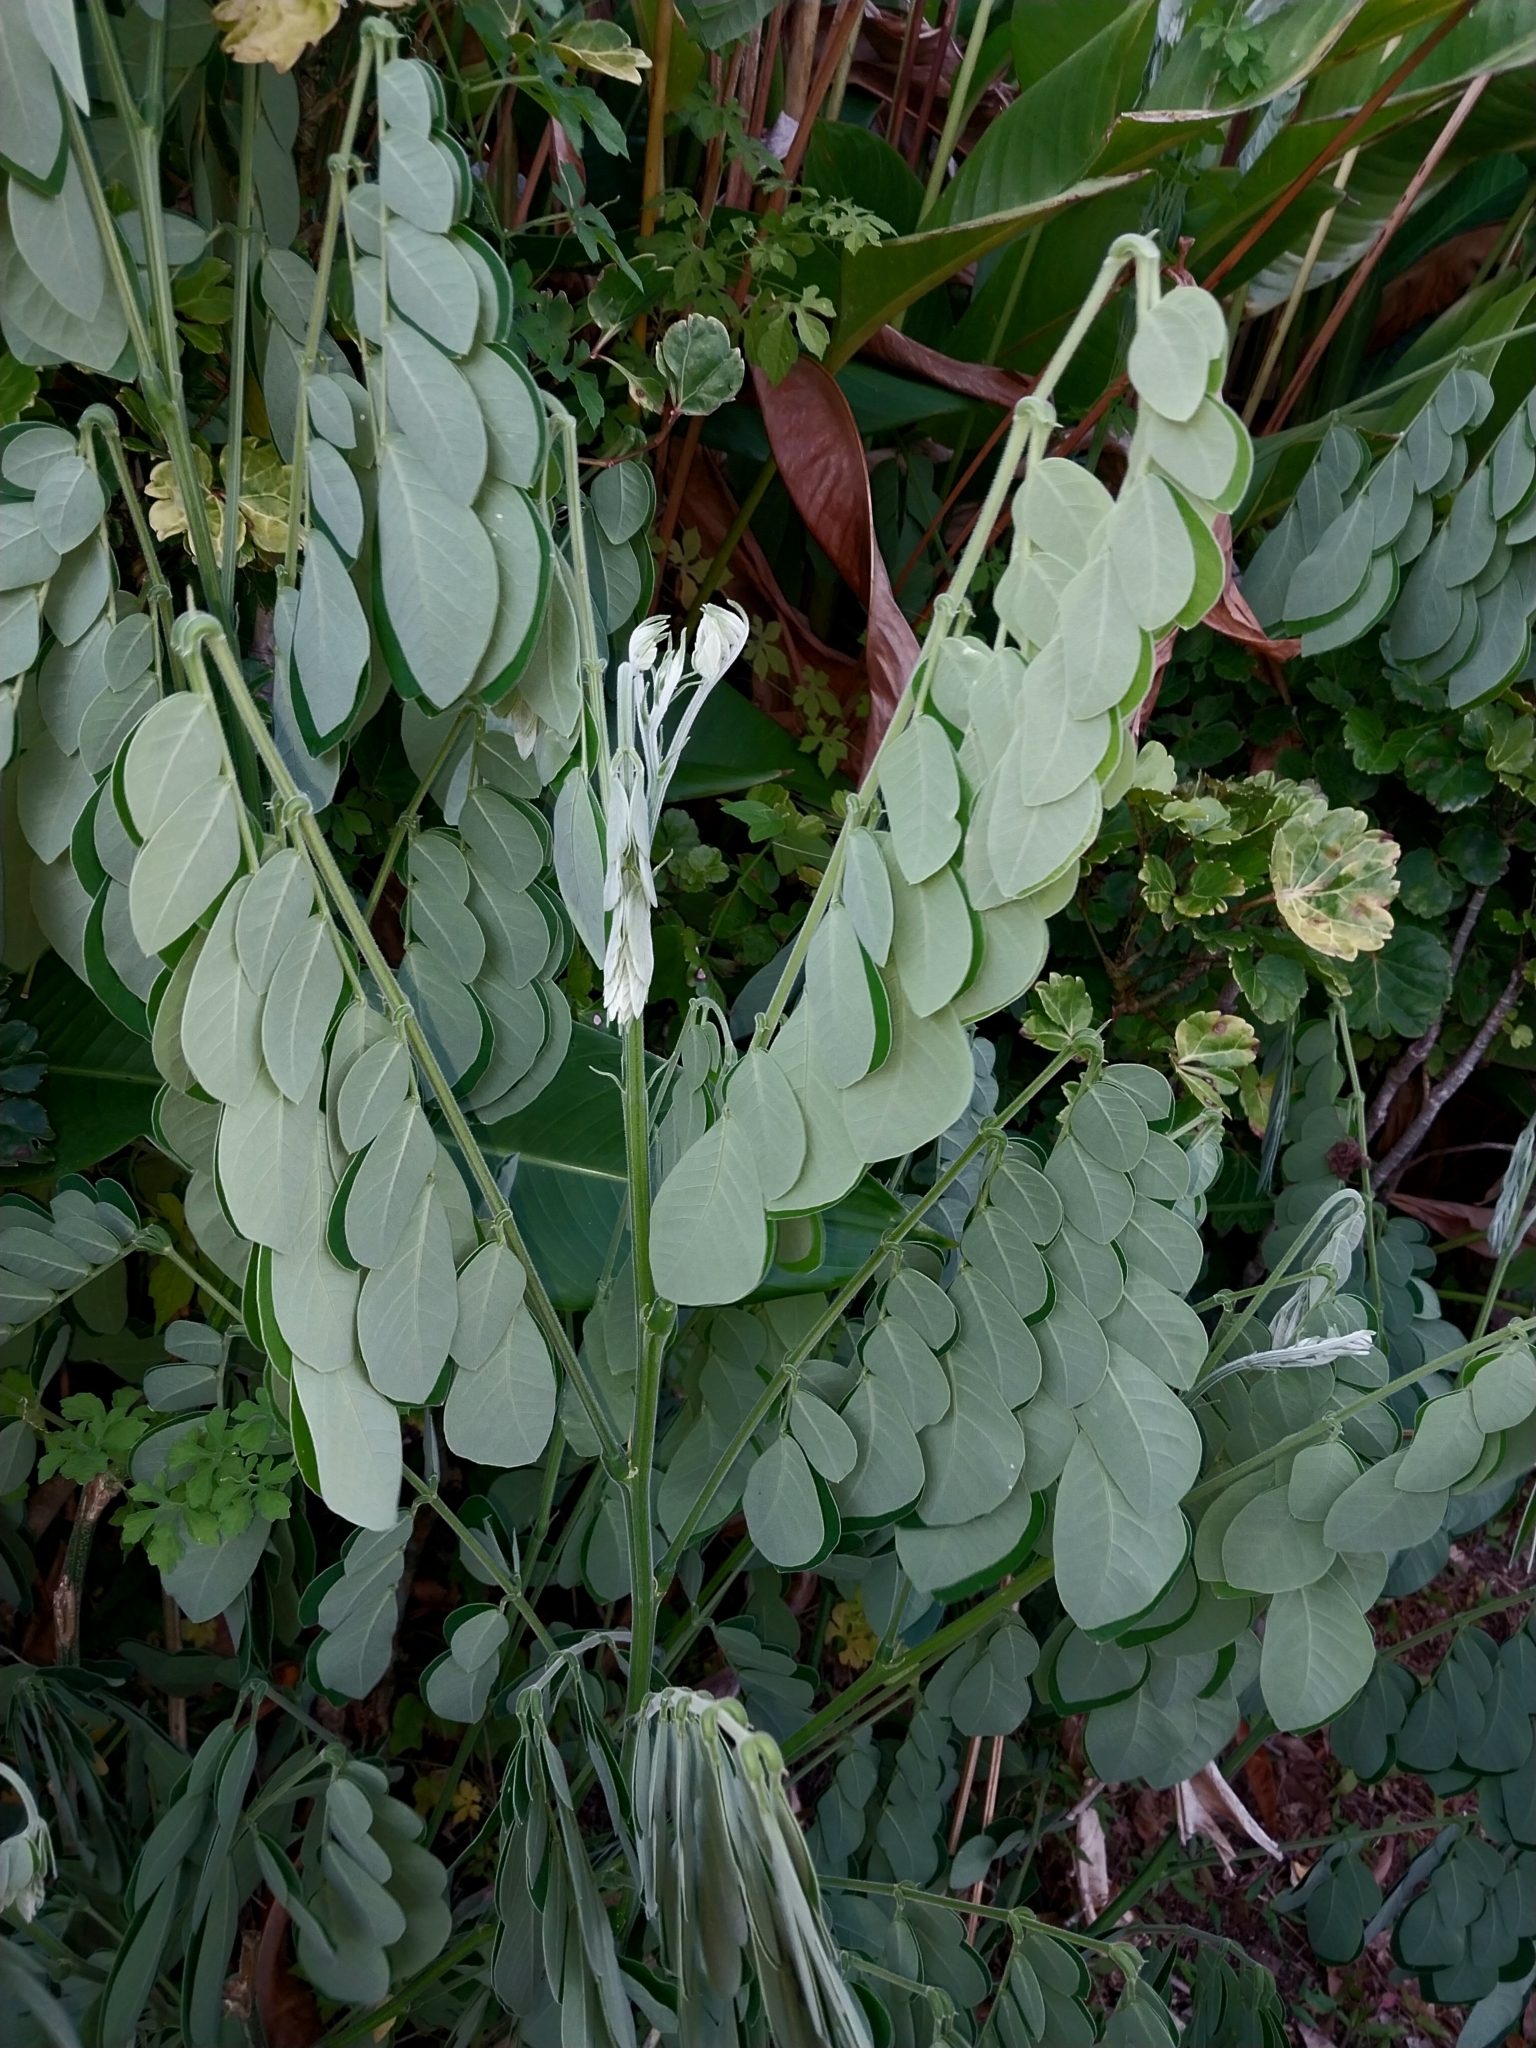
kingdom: Plantae
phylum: Tracheophyta
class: Magnoliopsida
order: Fabales
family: Fabaceae
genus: Samanea
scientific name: Samanea saman
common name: Raintree
